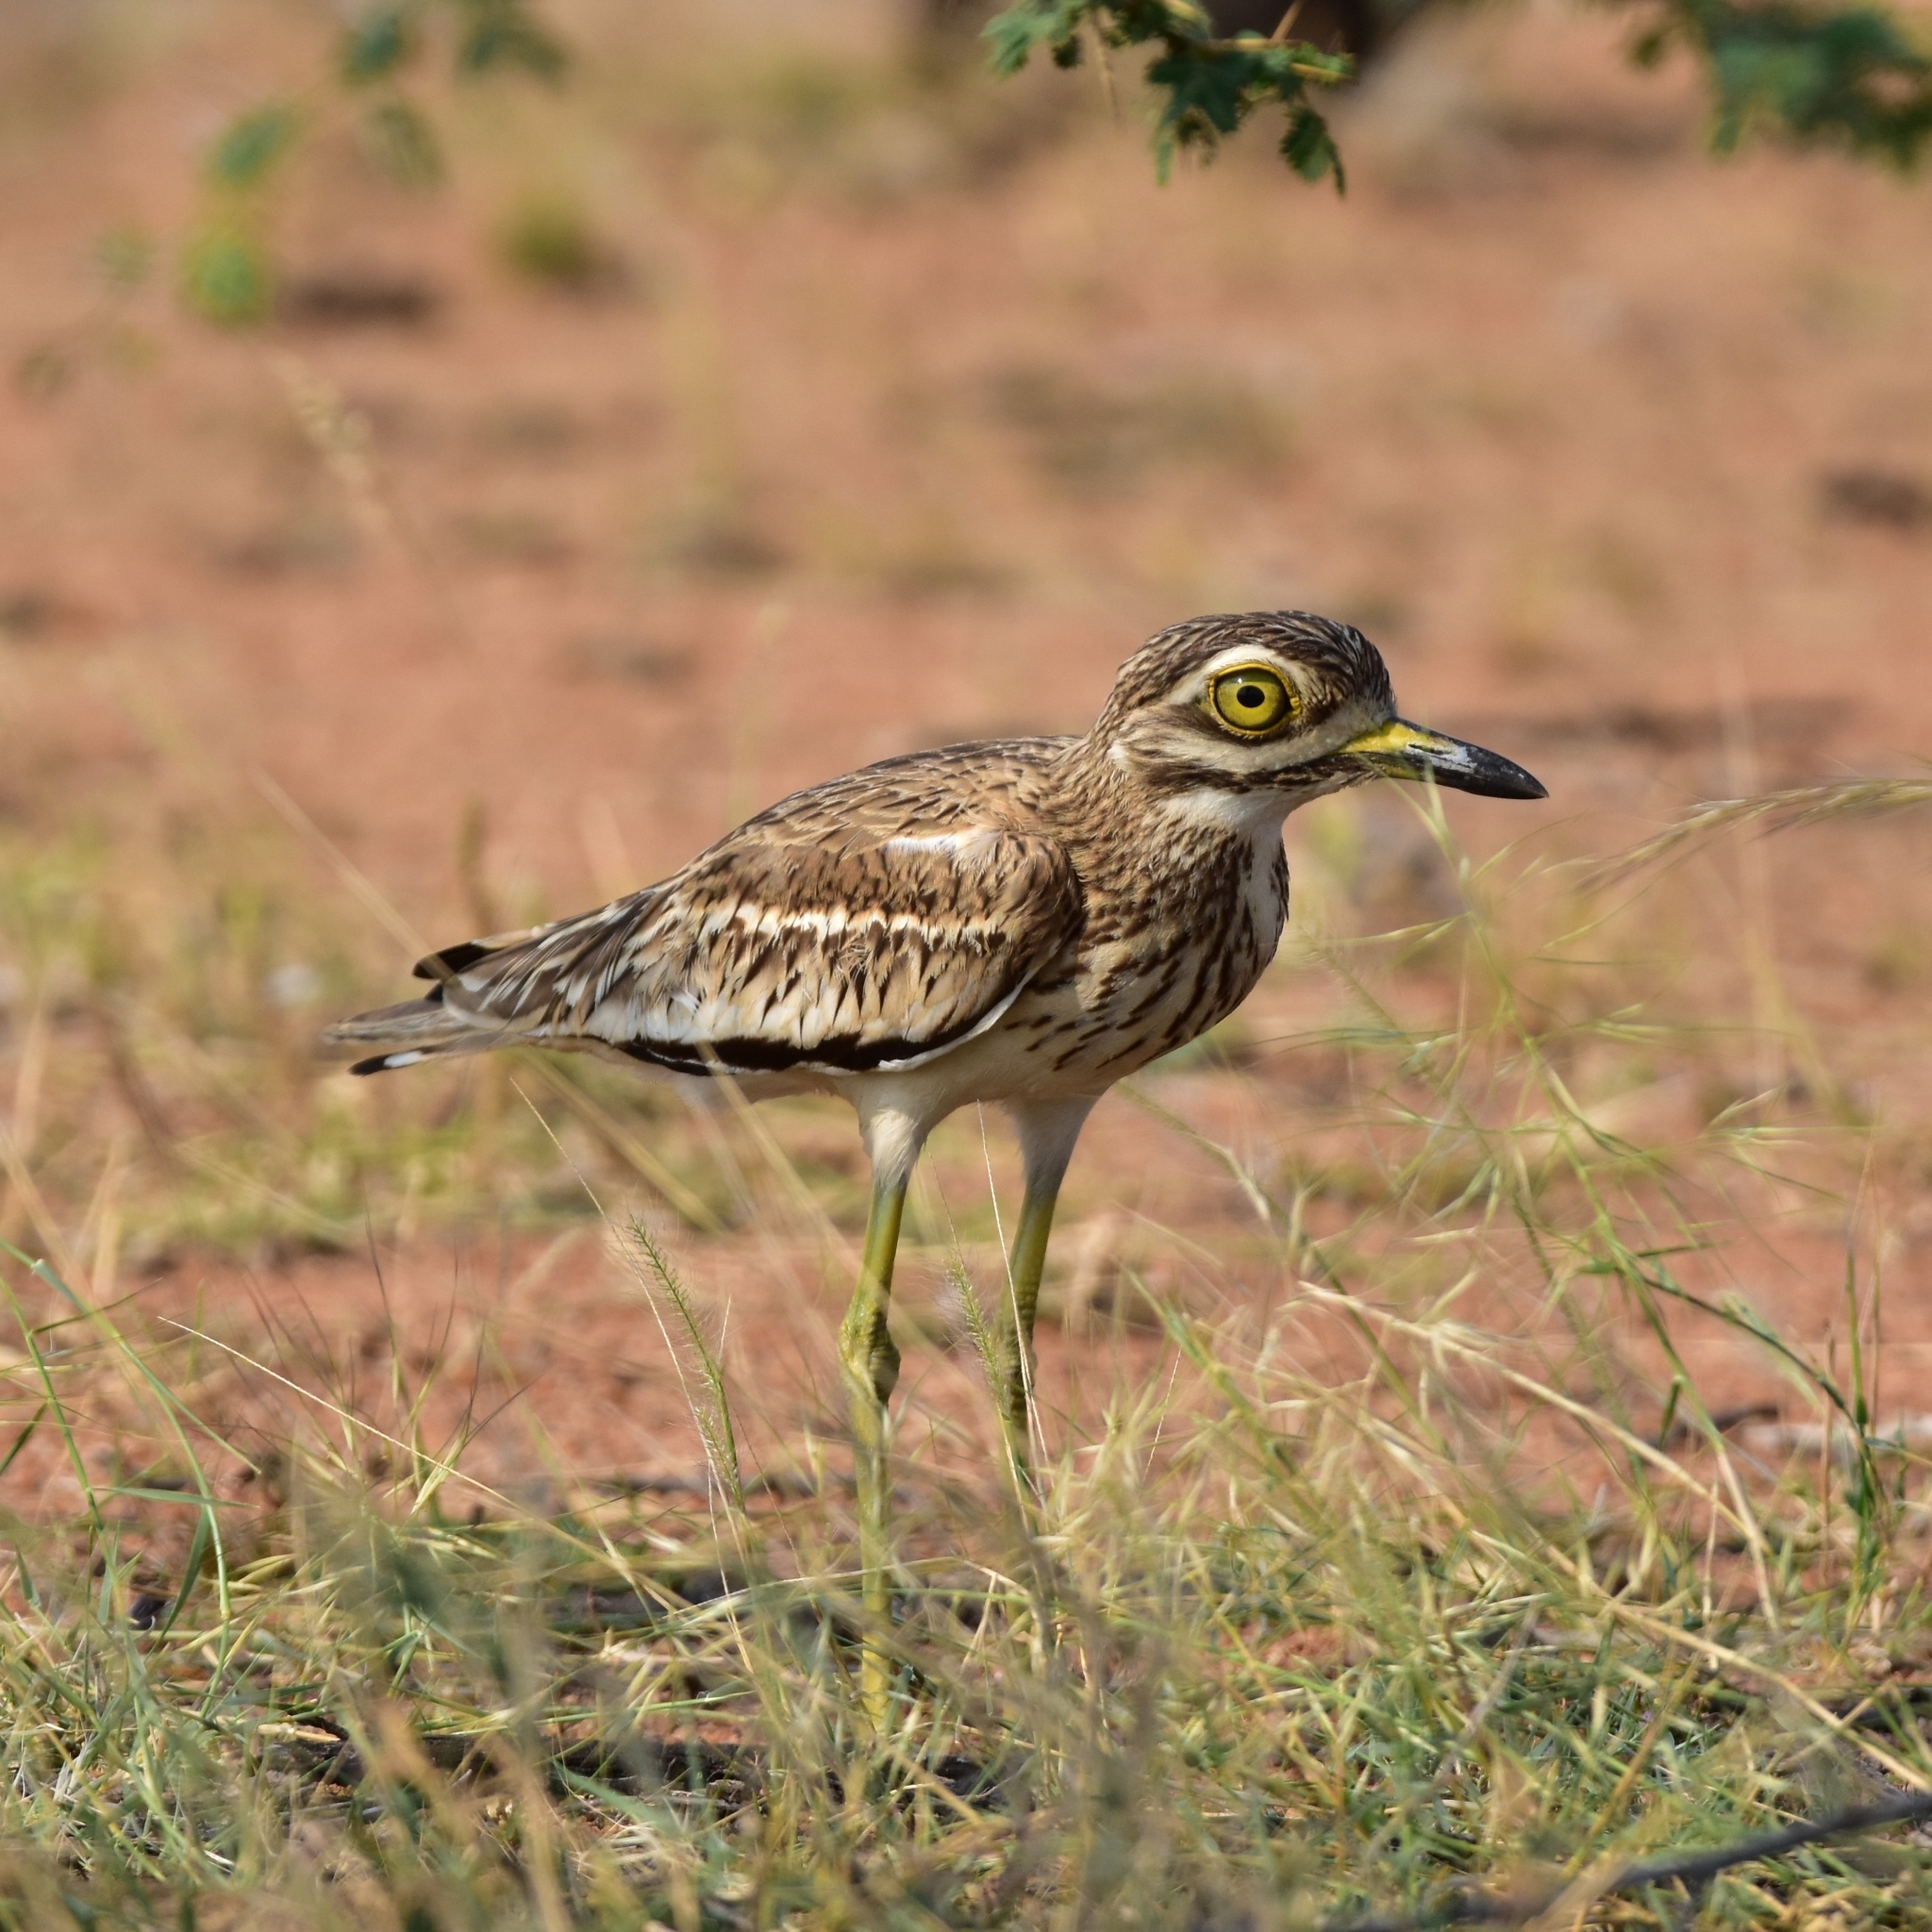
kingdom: Animalia
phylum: Chordata
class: Aves
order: Charadriiformes
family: Burhinidae
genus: Burhinus
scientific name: Burhinus indicus
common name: Indian thick-knee
